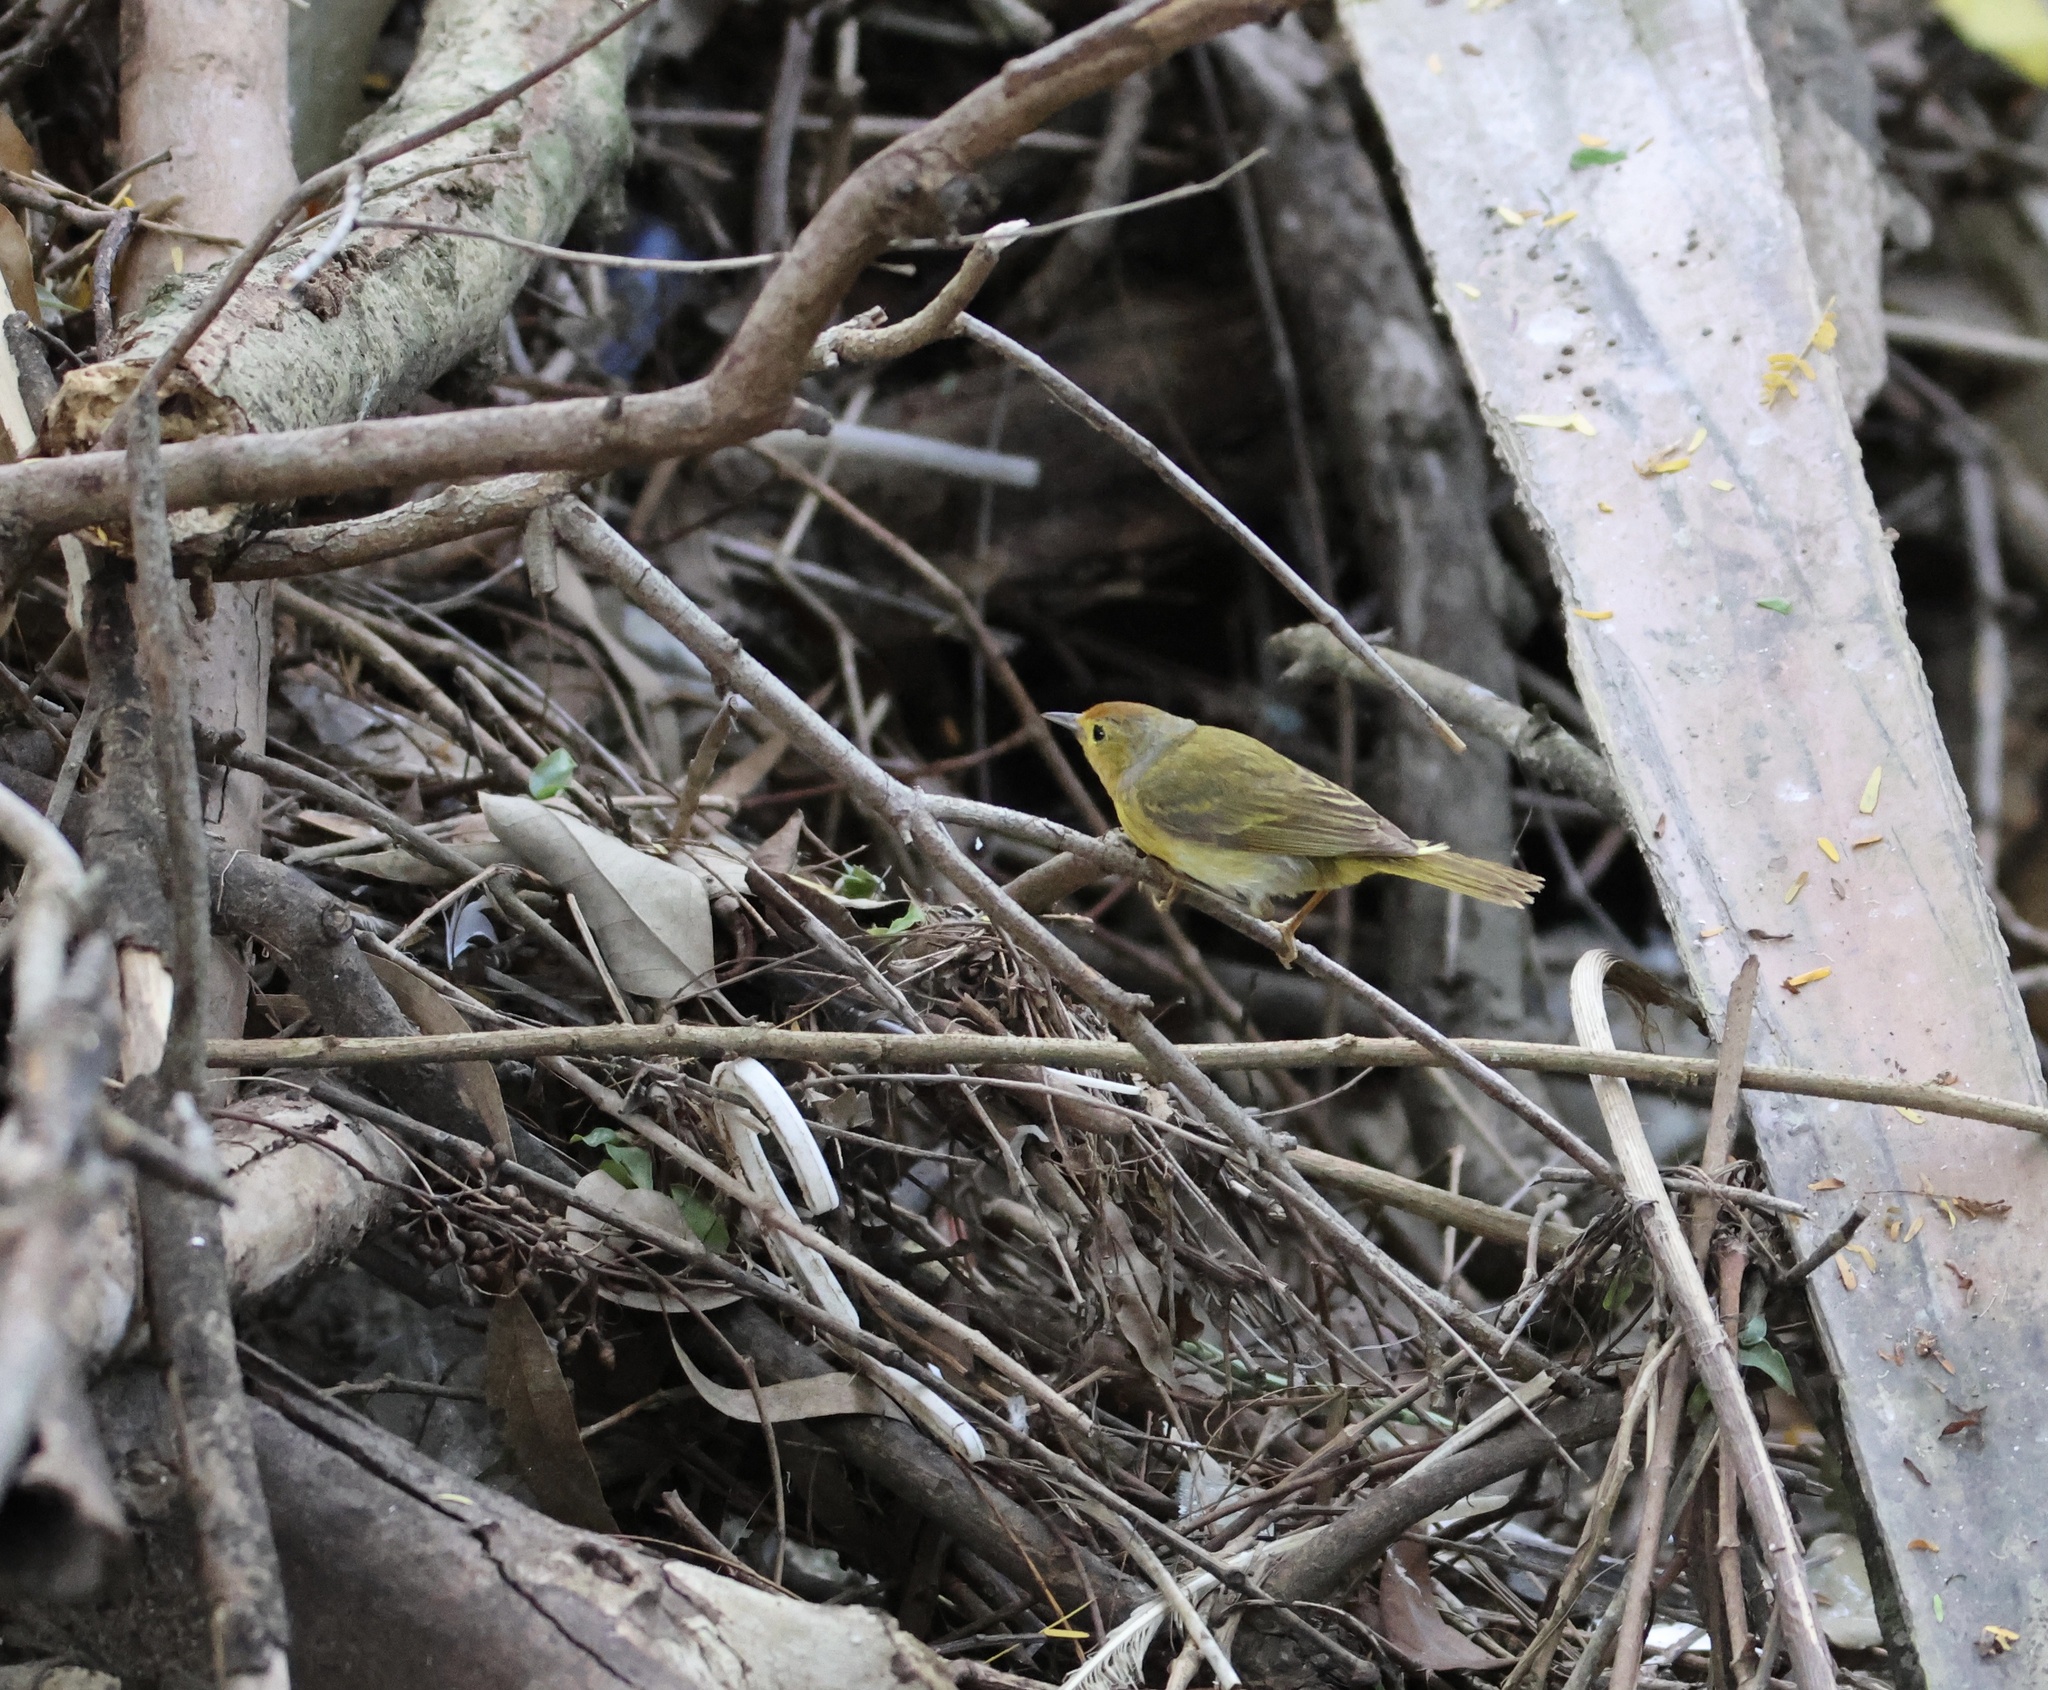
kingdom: Animalia
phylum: Chordata
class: Aves
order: Passeriformes
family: Parulidae
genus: Setophaga
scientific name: Setophaga petechia
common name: Yellow warbler
